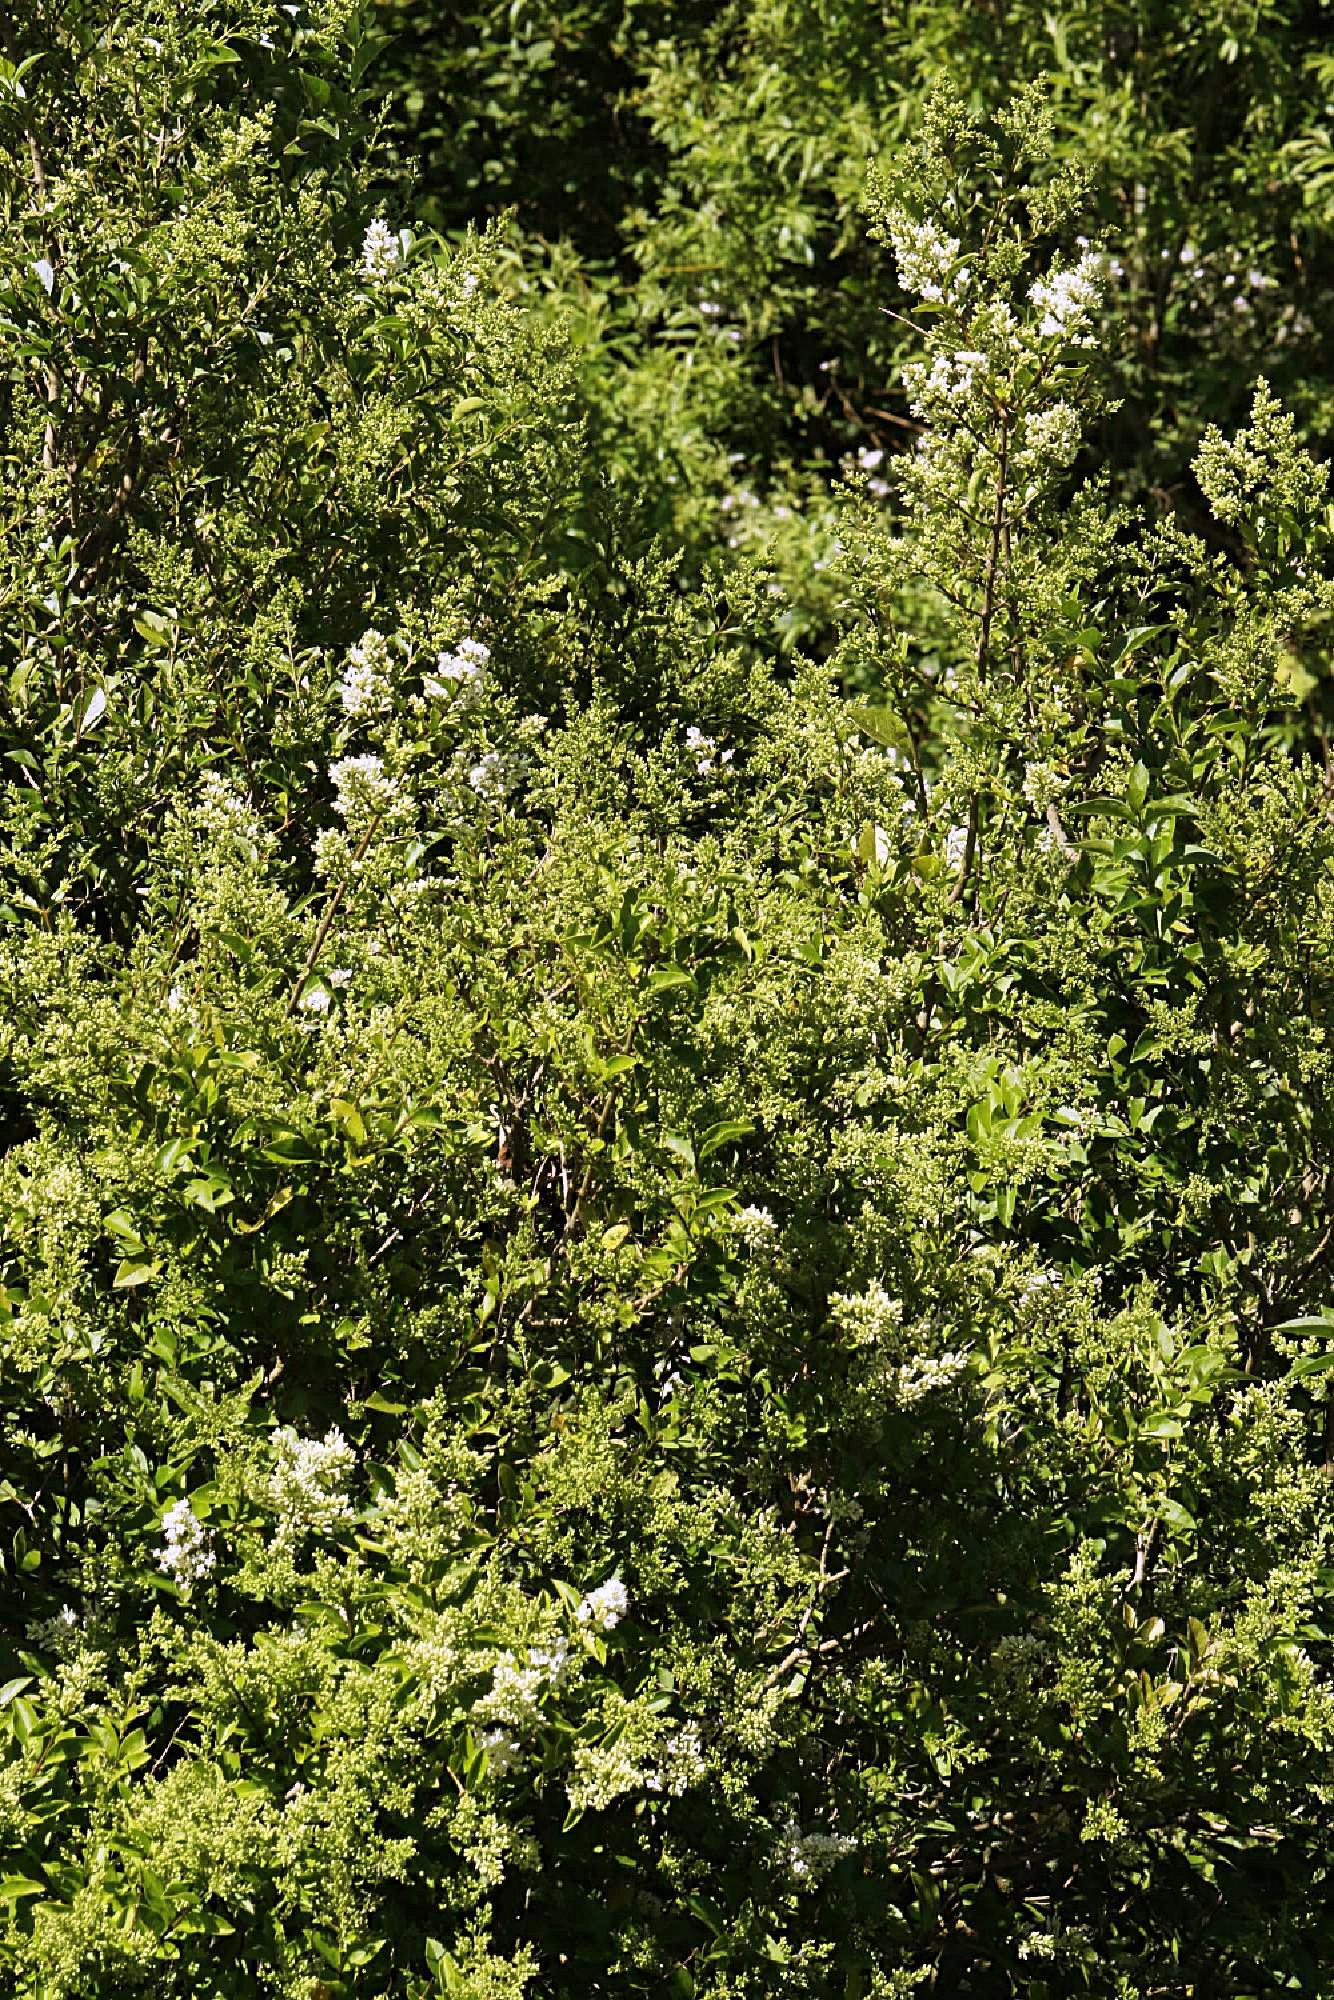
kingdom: Plantae
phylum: Tracheophyta
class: Magnoliopsida
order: Lamiales
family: Oleaceae
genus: Ligustrum
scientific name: Ligustrum ovalifolium
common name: California privet
